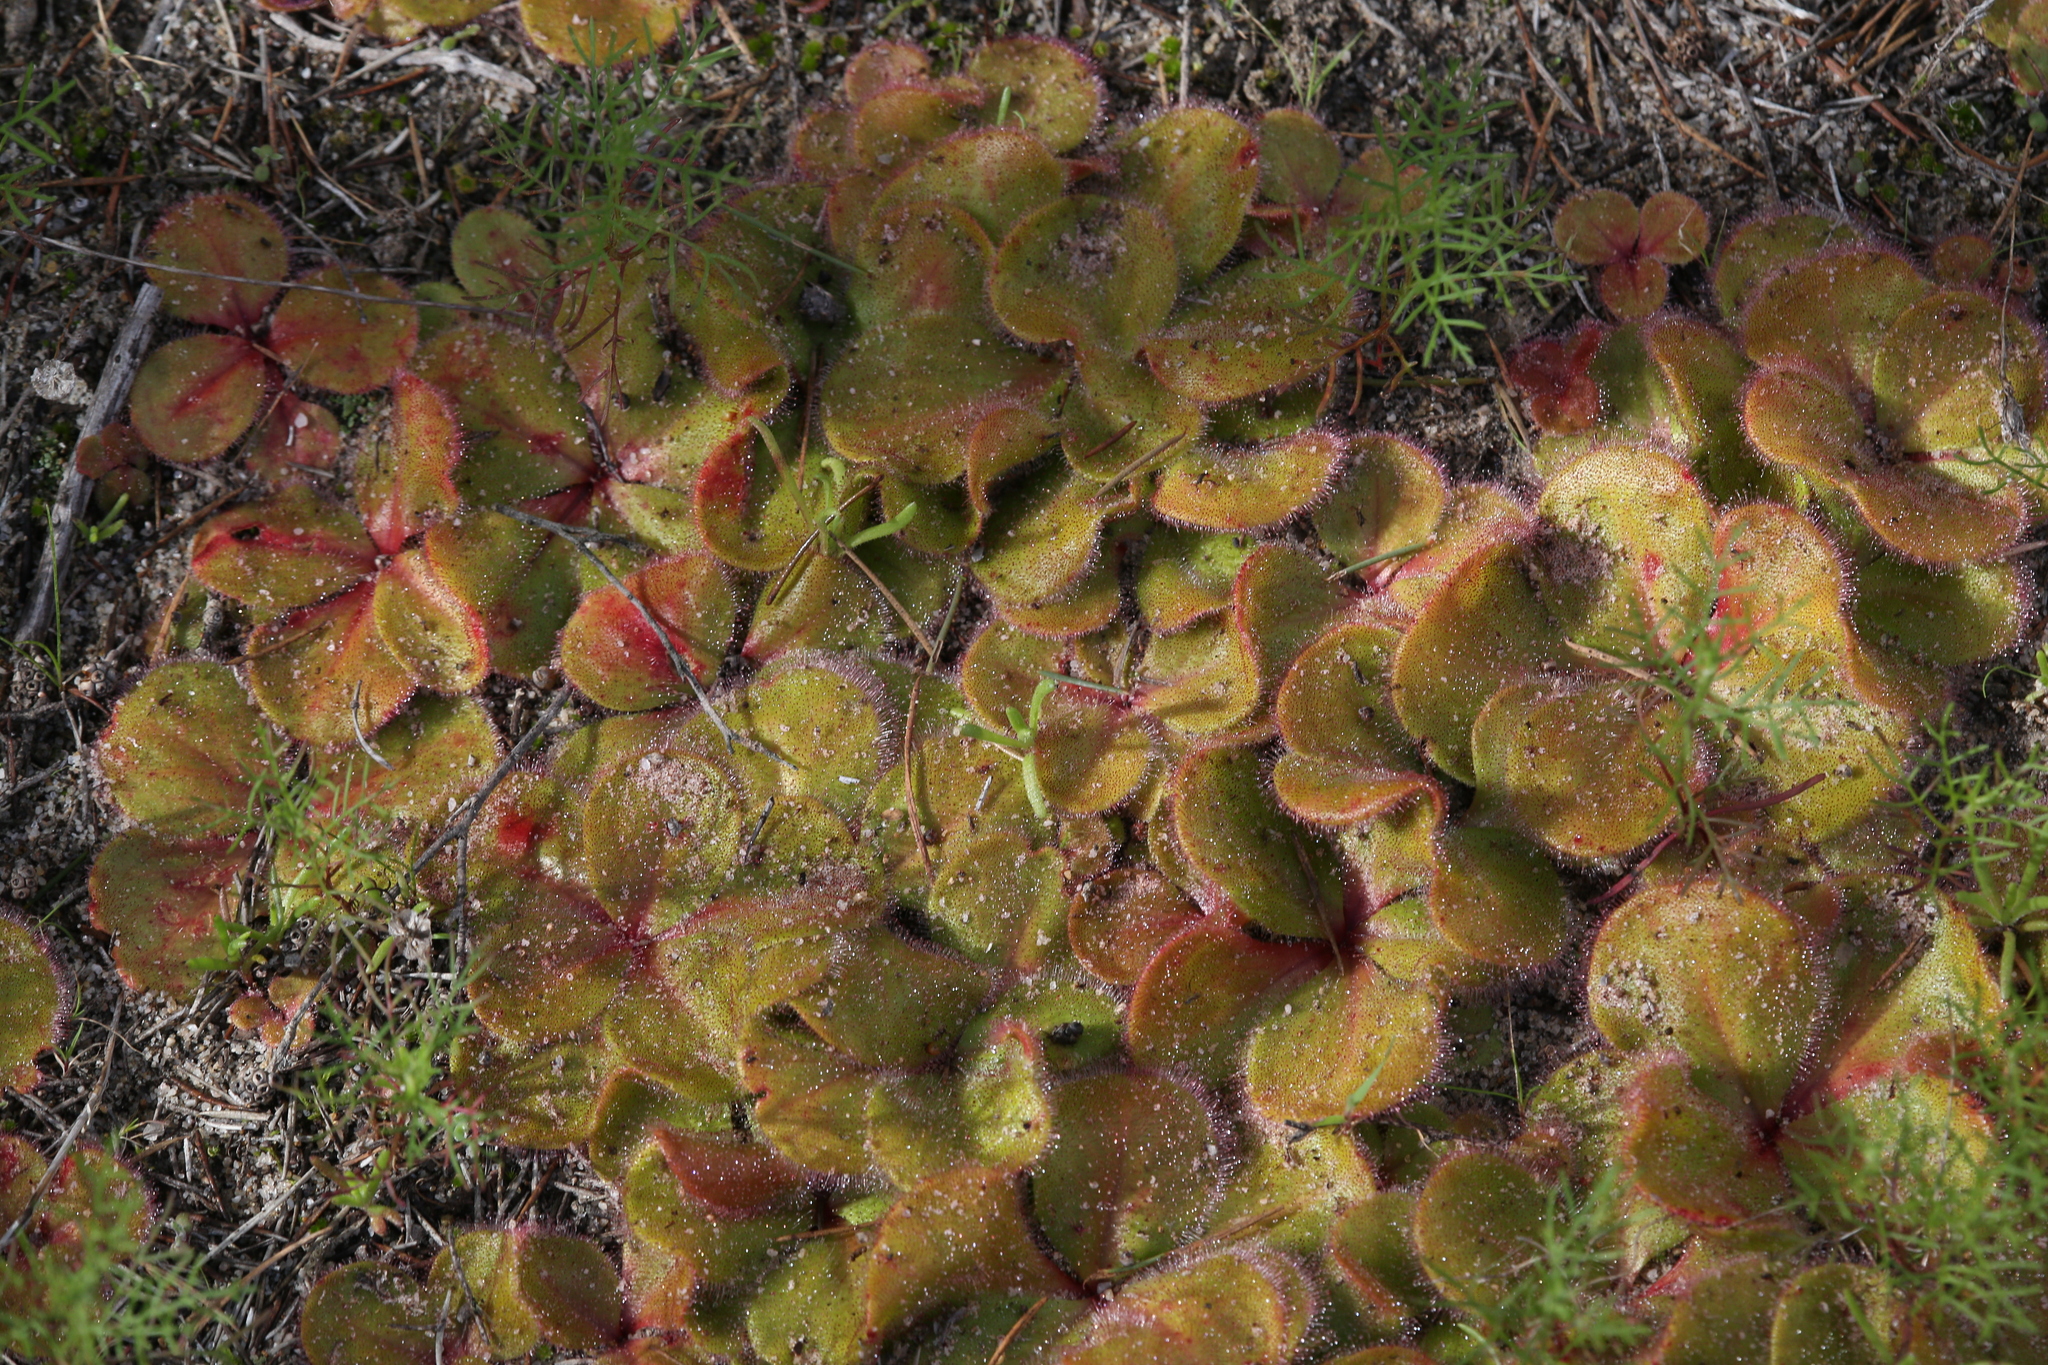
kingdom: Plantae
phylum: Tracheophyta
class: Magnoliopsida
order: Caryophyllales
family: Droseraceae
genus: Drosera
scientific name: Drosera erythrorhiza
